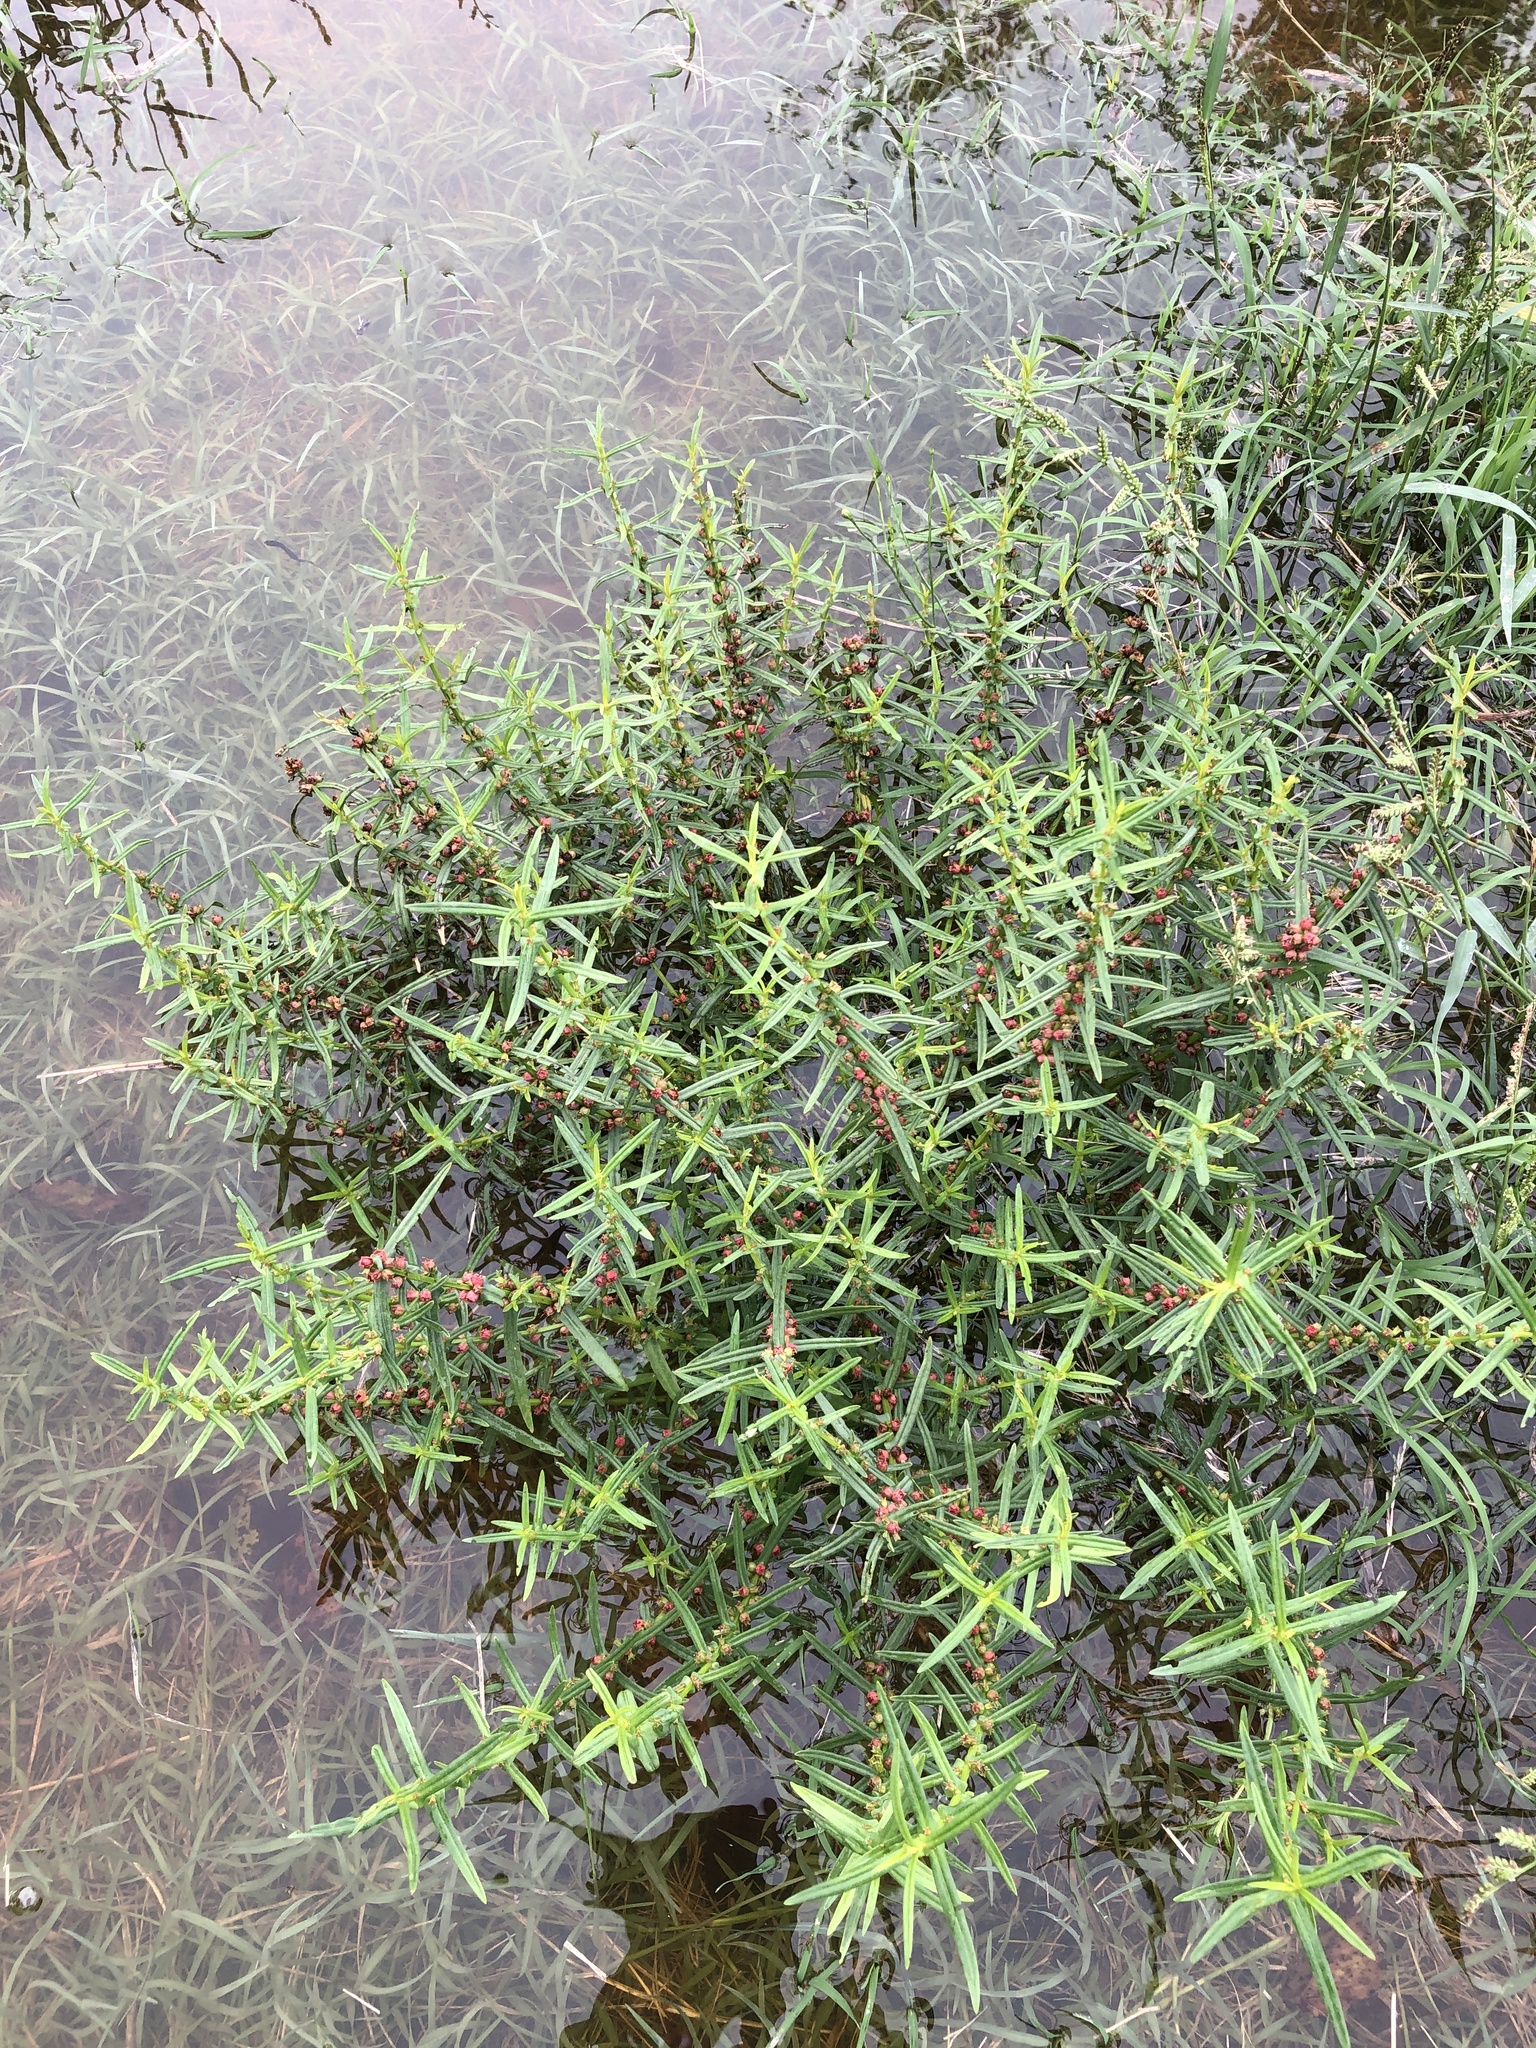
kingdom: Plantae
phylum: Tracheophyta
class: Magnoliopsida
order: Myrtales
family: Lythraceae
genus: Ammannia
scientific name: Ammannia coccinea
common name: Valley redstem
